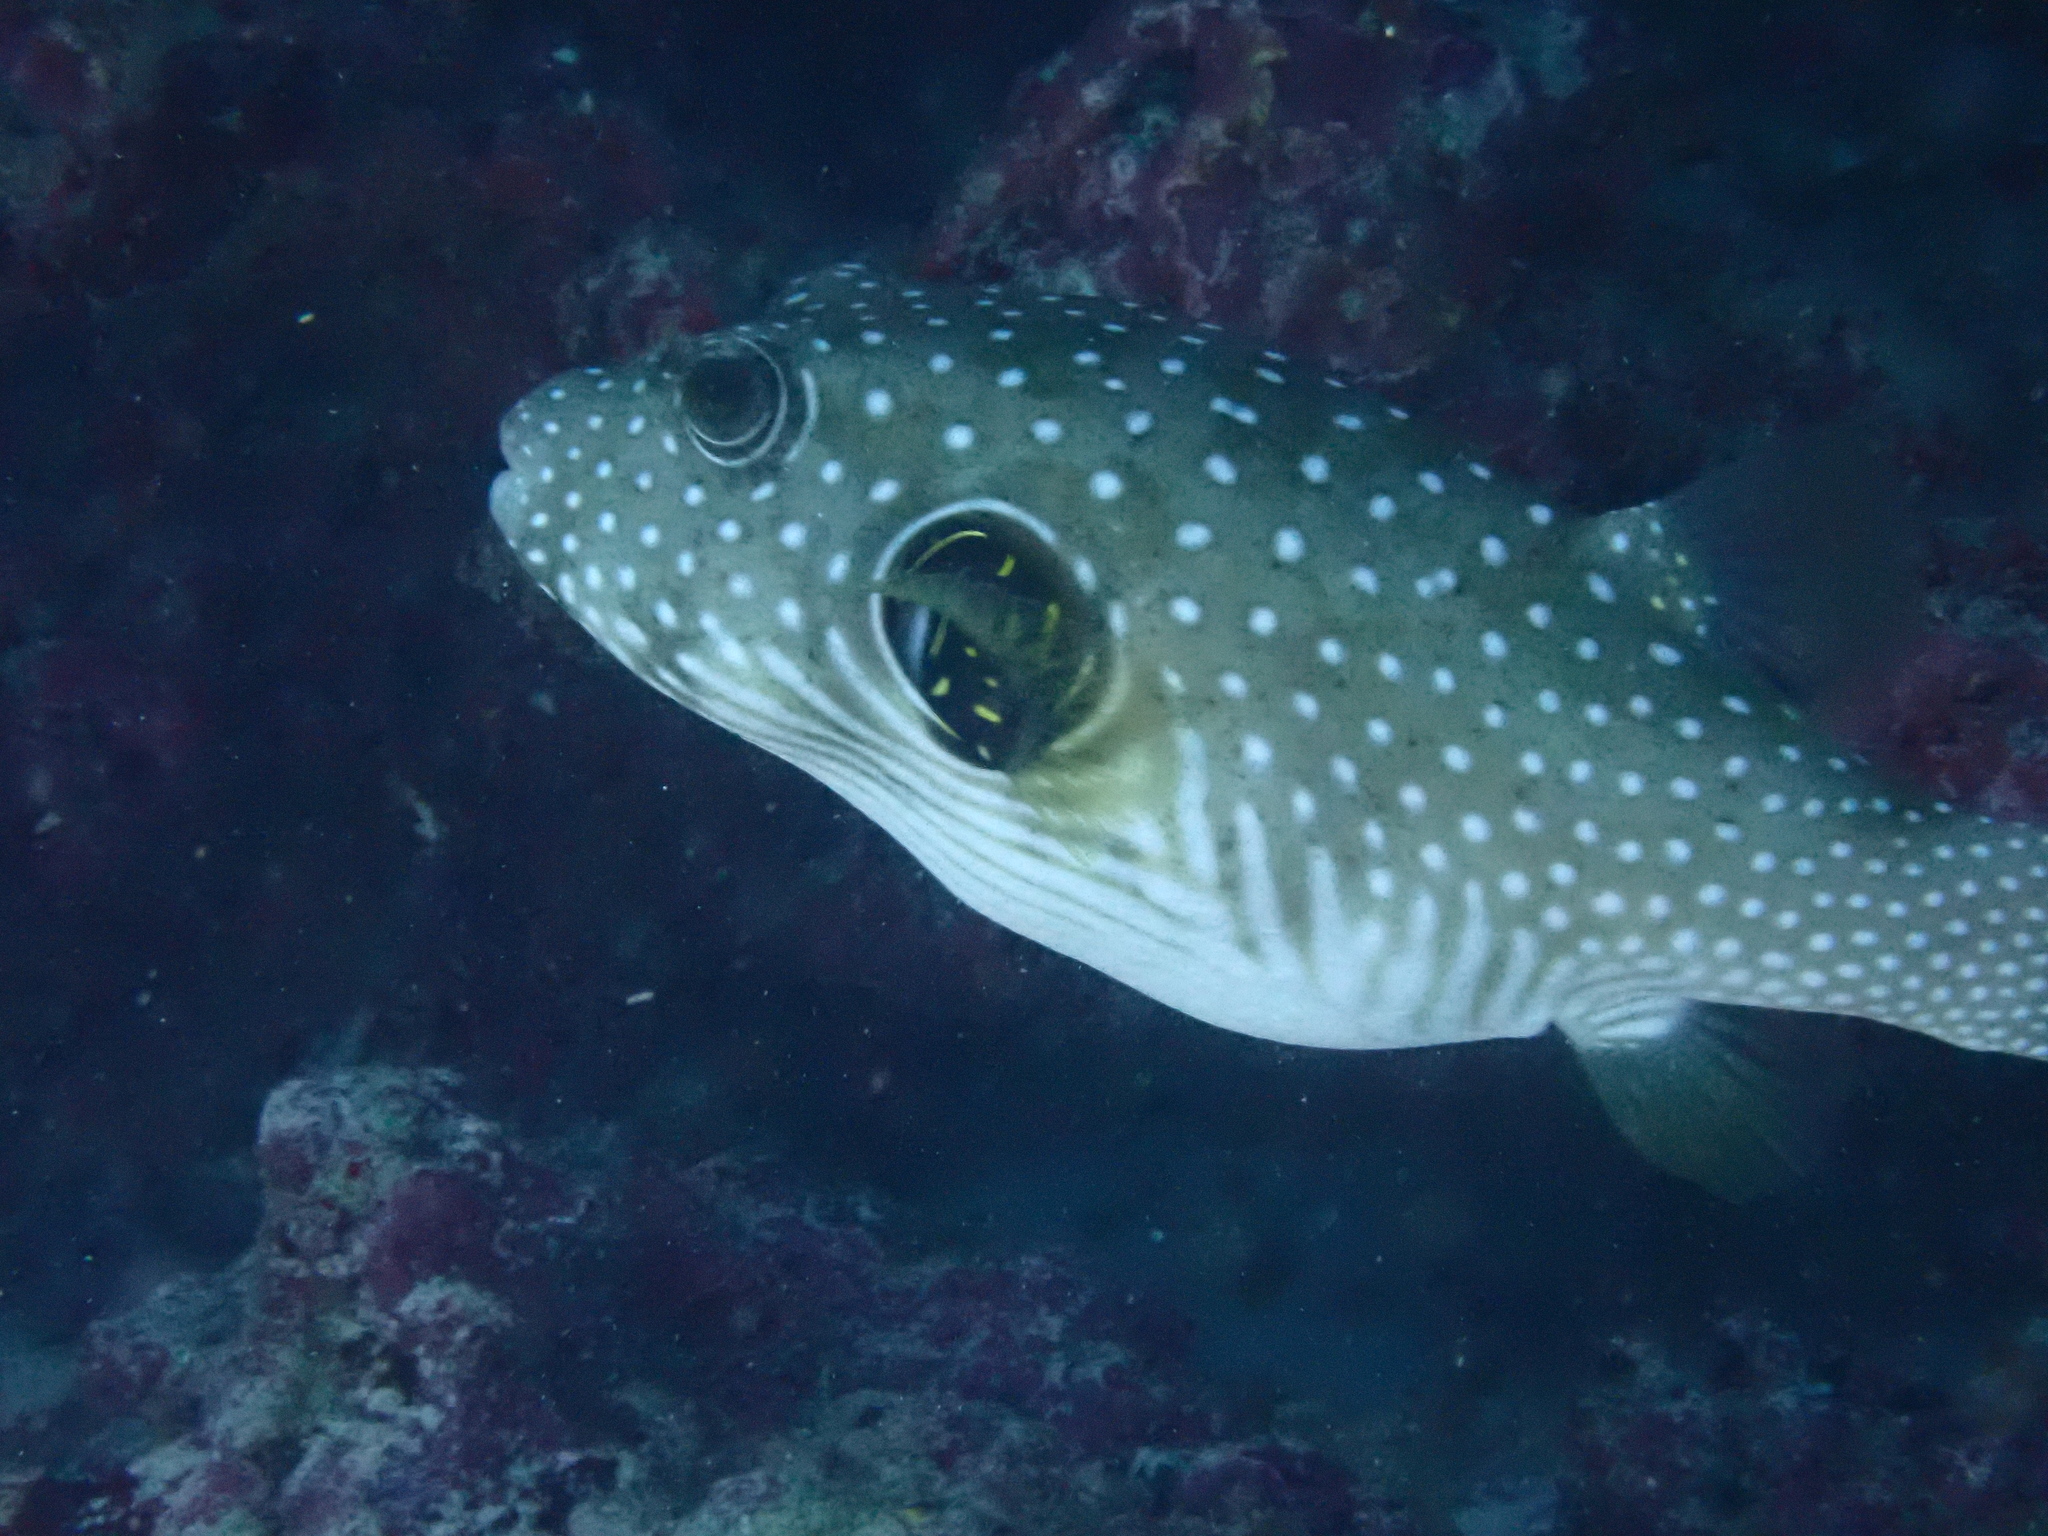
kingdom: Animalia
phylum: Chordata
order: Tetraodontiformes
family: Tetraodontidae
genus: Arothron
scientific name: Arothron hispidus
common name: Stripebelly puffer
